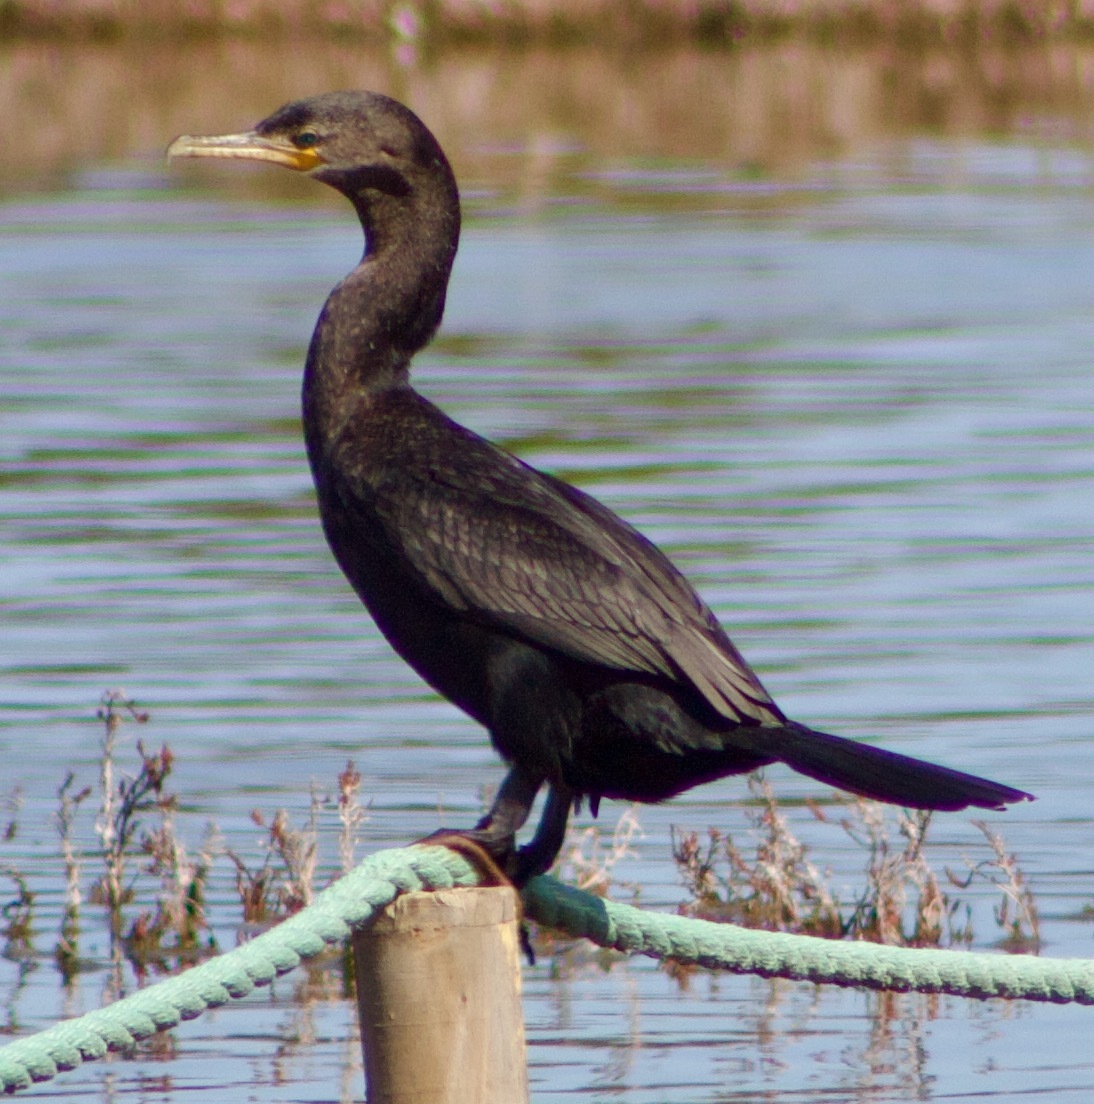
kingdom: Animalia
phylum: Chordata
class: Aves
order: Suliformes
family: Phalacrocoracidae
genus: Phalacrocorax
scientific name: Phalacrocorax brasilianus
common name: Neotropic cormorant
